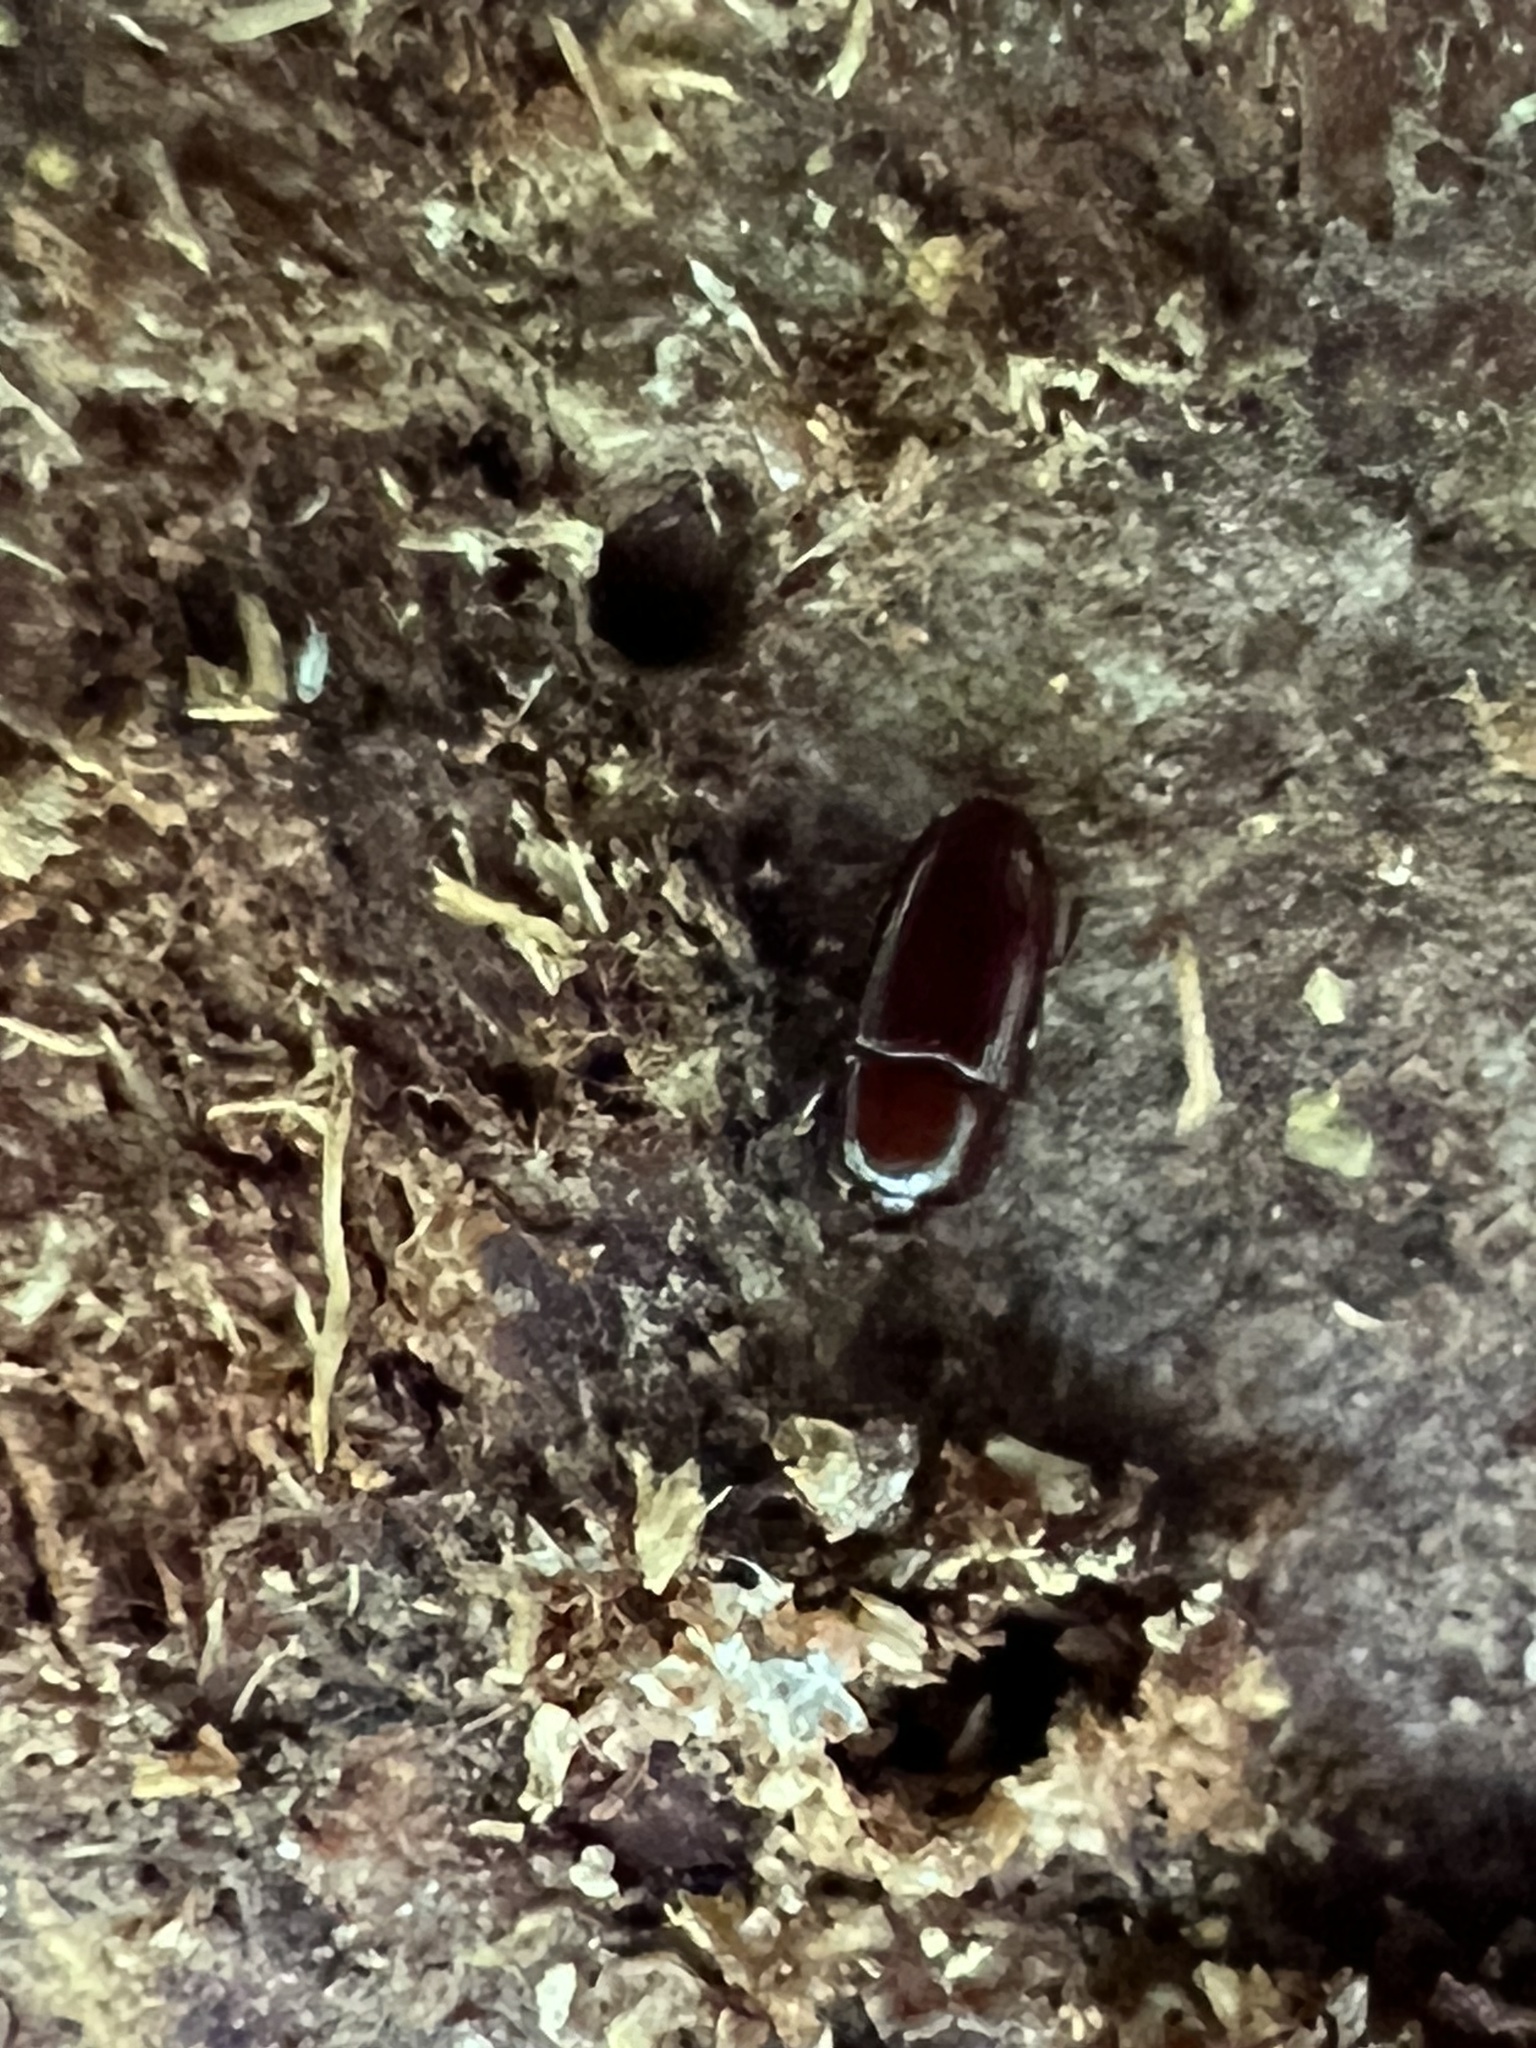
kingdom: Animalia
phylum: Arthropoda
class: Insecta
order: Coleoptera
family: Cerylonidae
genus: Philothermus
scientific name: Philothermus glabriculus
